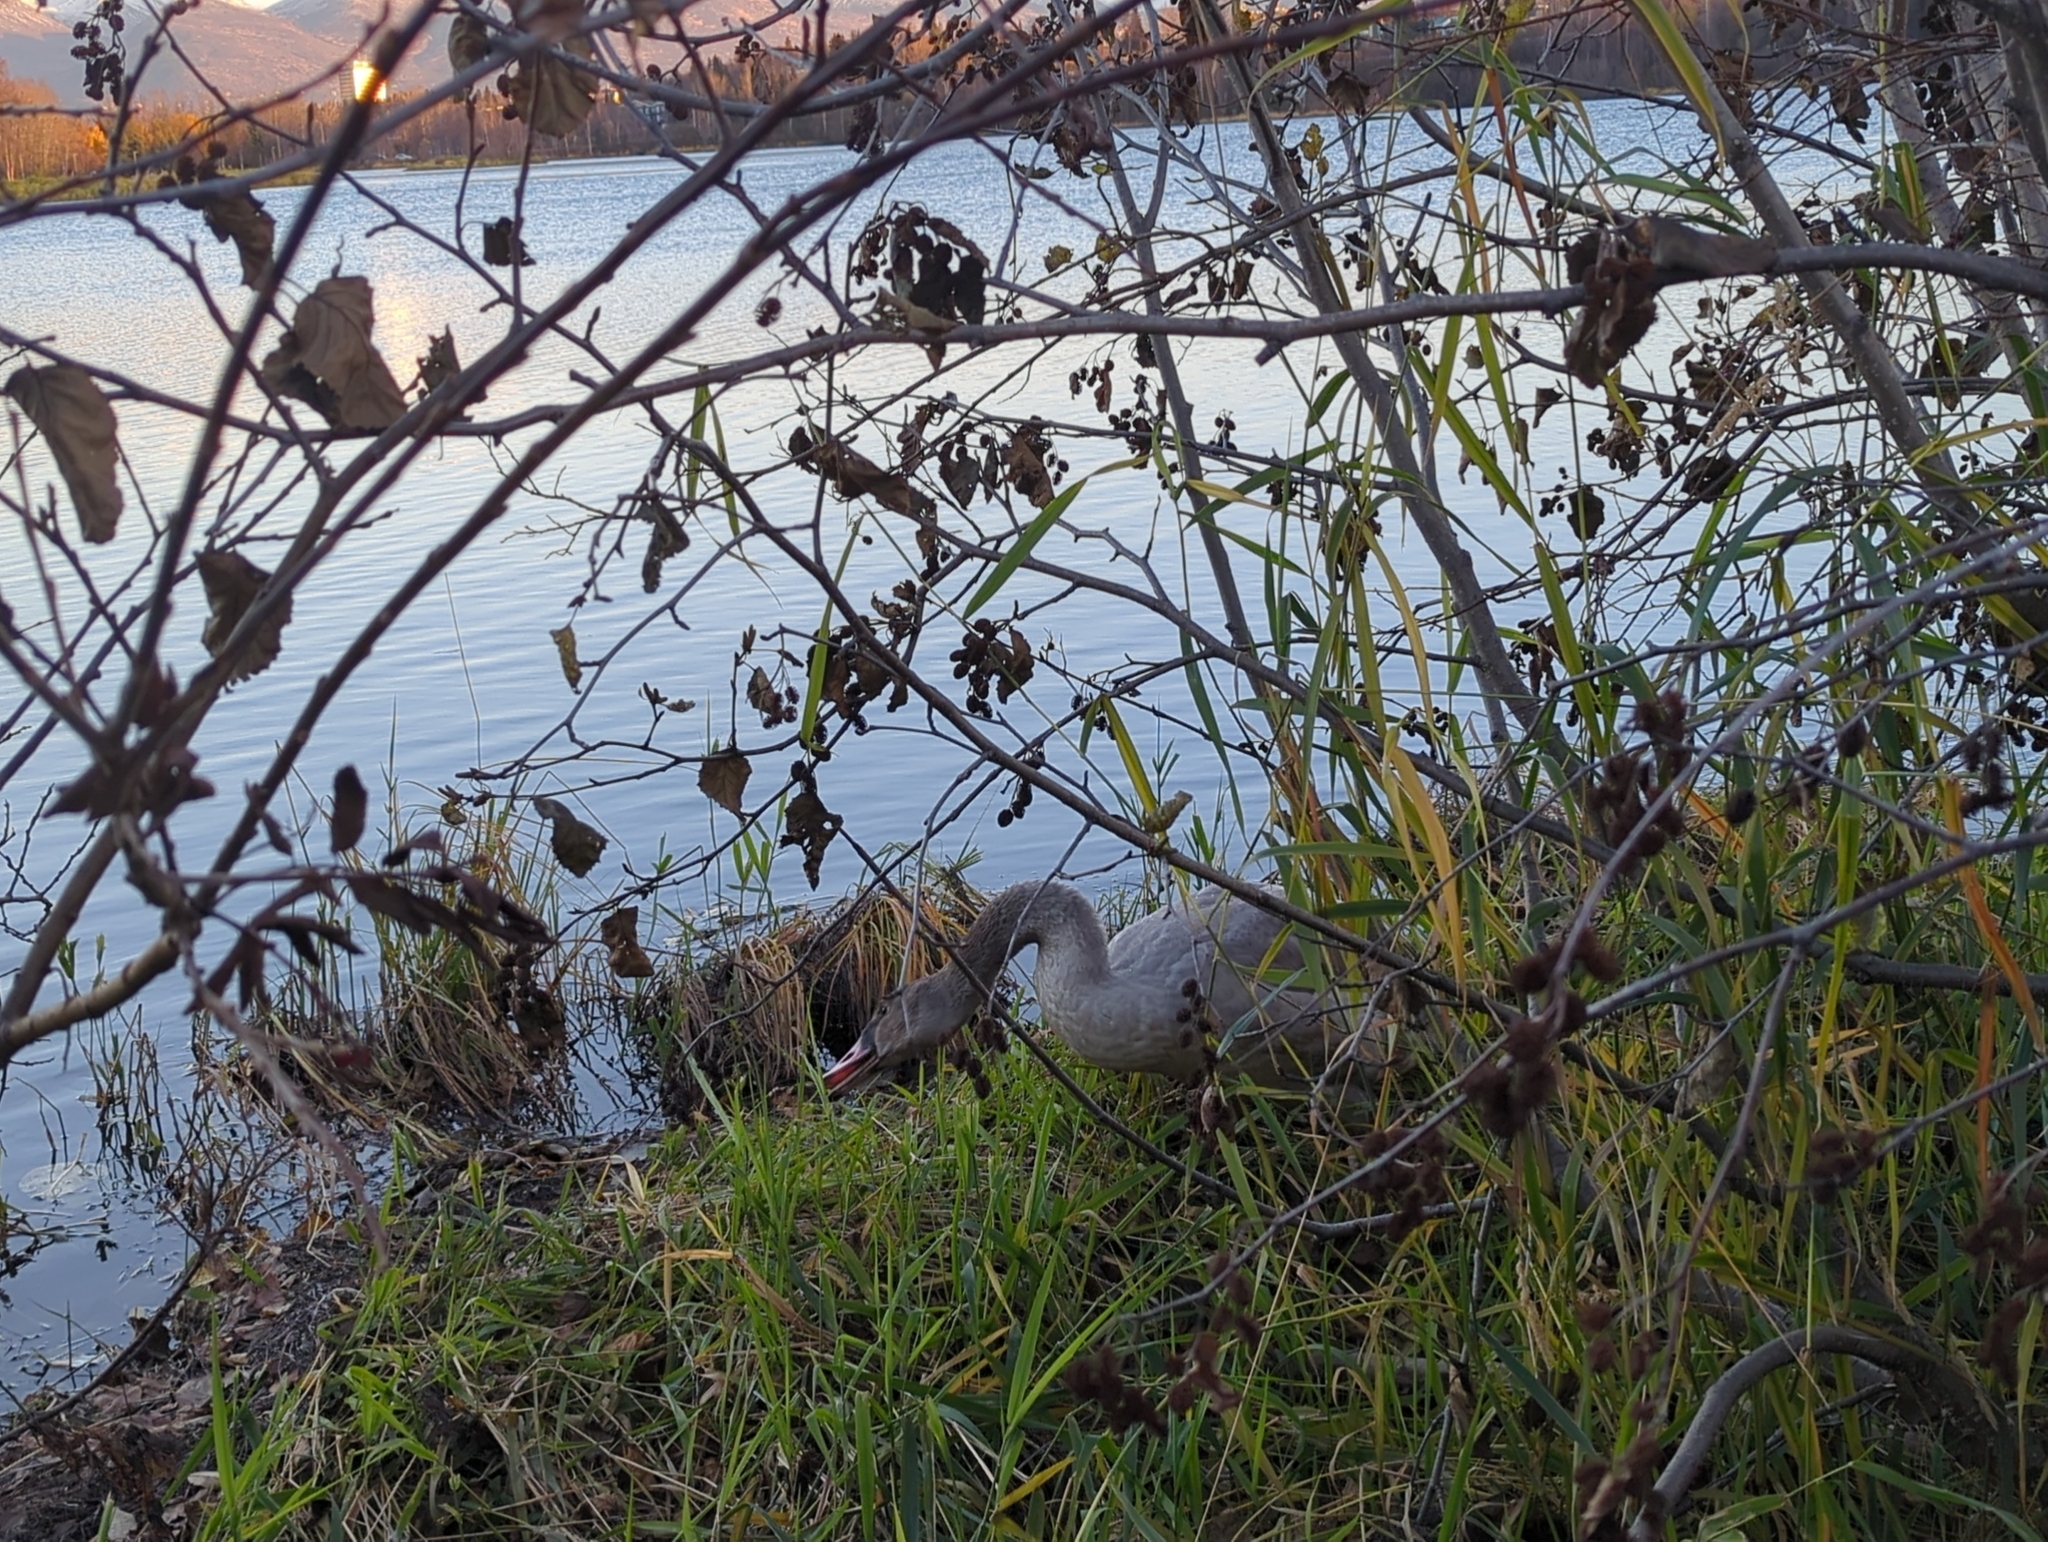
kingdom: Animalia
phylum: Chordata
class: Aves
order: Anseriformes
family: Anatidae
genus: Cygnus
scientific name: Cygnus buccinator
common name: Trumpeter swan
